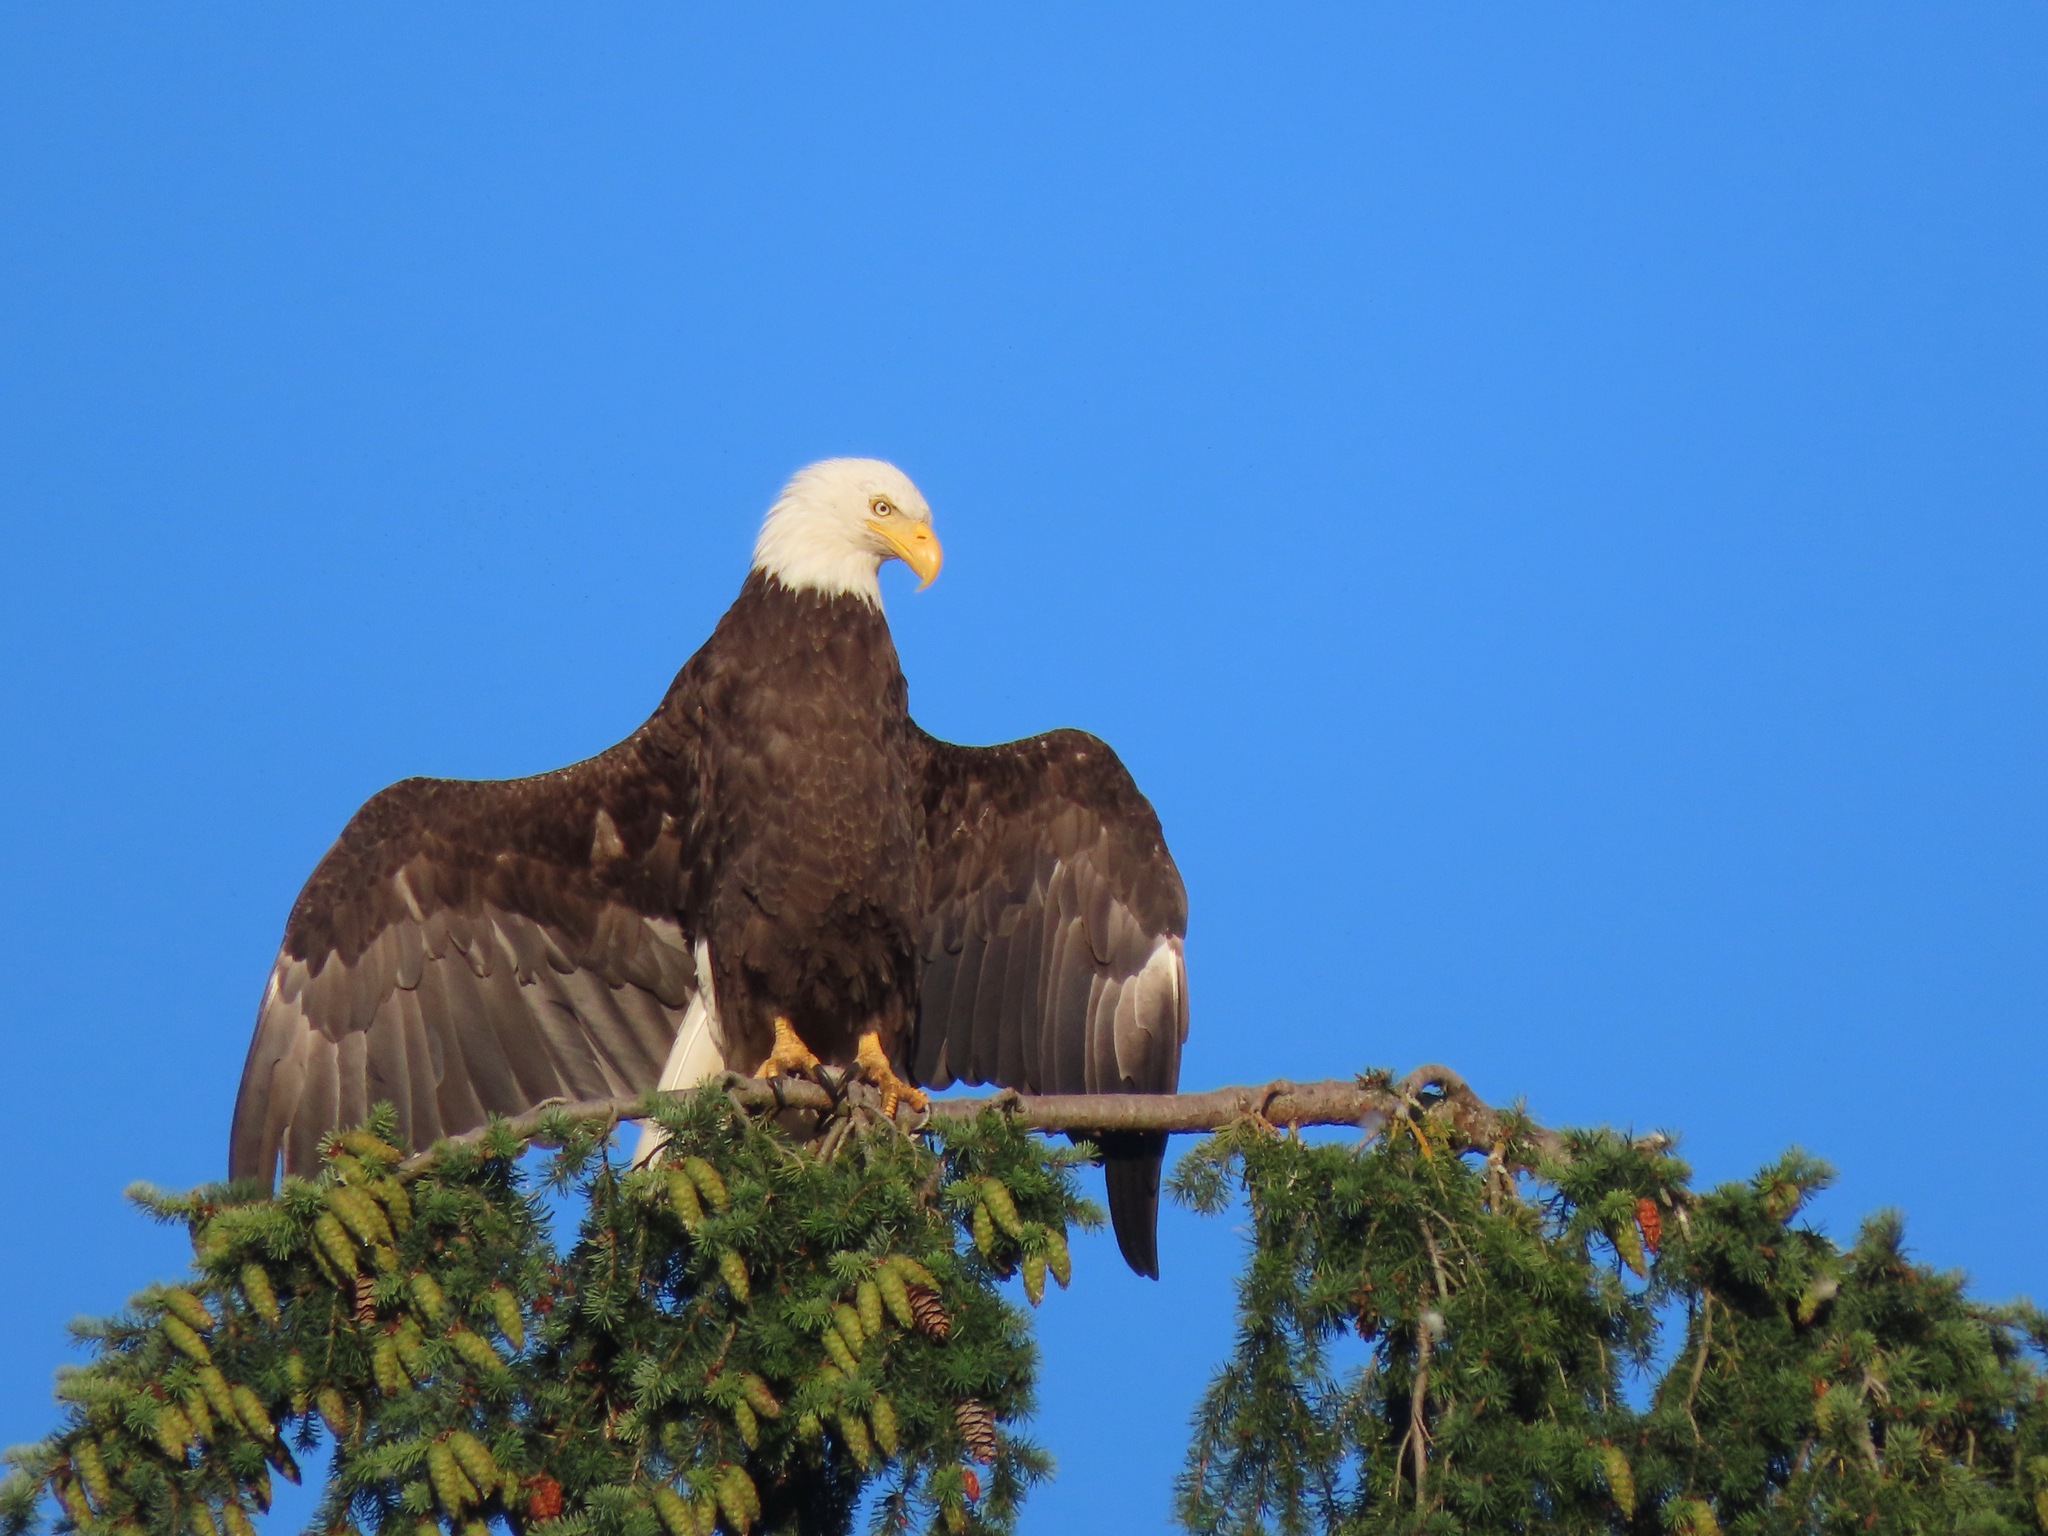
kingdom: Animalia
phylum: Chordata
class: Aves
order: Accipitriformes
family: Accipitridae
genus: Haliaeetus
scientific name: Haliaeetus leucocephalus
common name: Bald eagle
